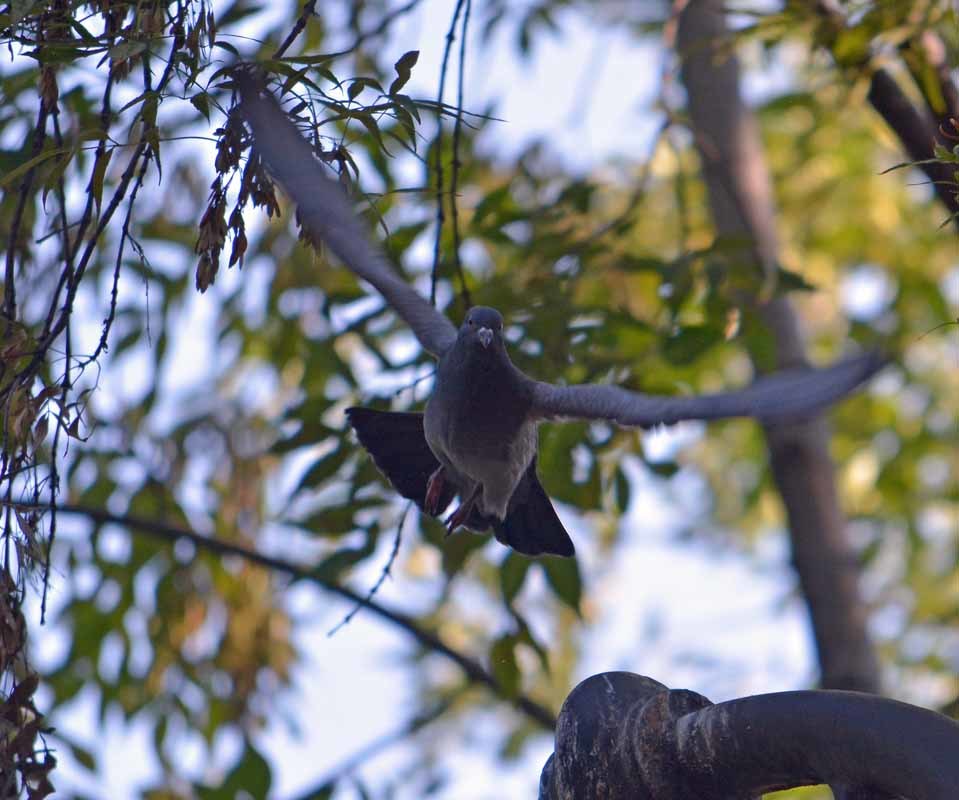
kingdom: Animalia
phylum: Chordata
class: Aves
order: Columbiformes
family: Columbidae
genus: Columba
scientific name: Columba livia
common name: Rock pigeon
